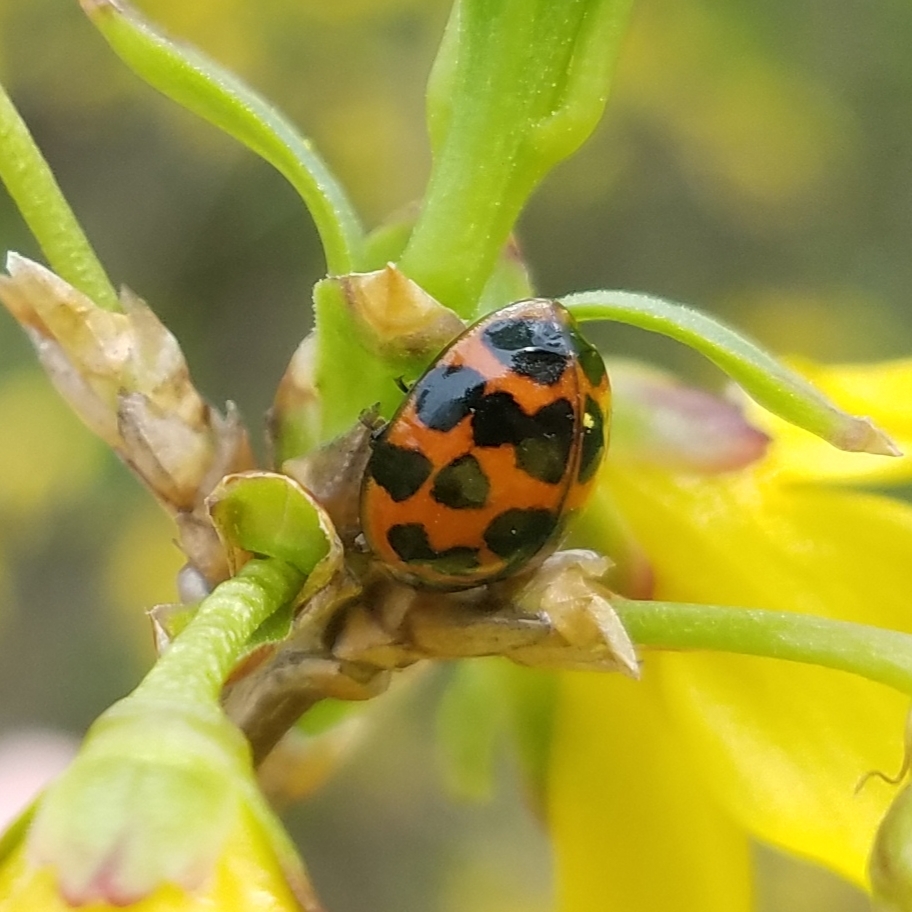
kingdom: Animalia
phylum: Arthropoda
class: Insecta
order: Coleoptera
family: Coccinellidae
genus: Harmonia
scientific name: Harmonia axyridis
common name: Harlequin ladybird
